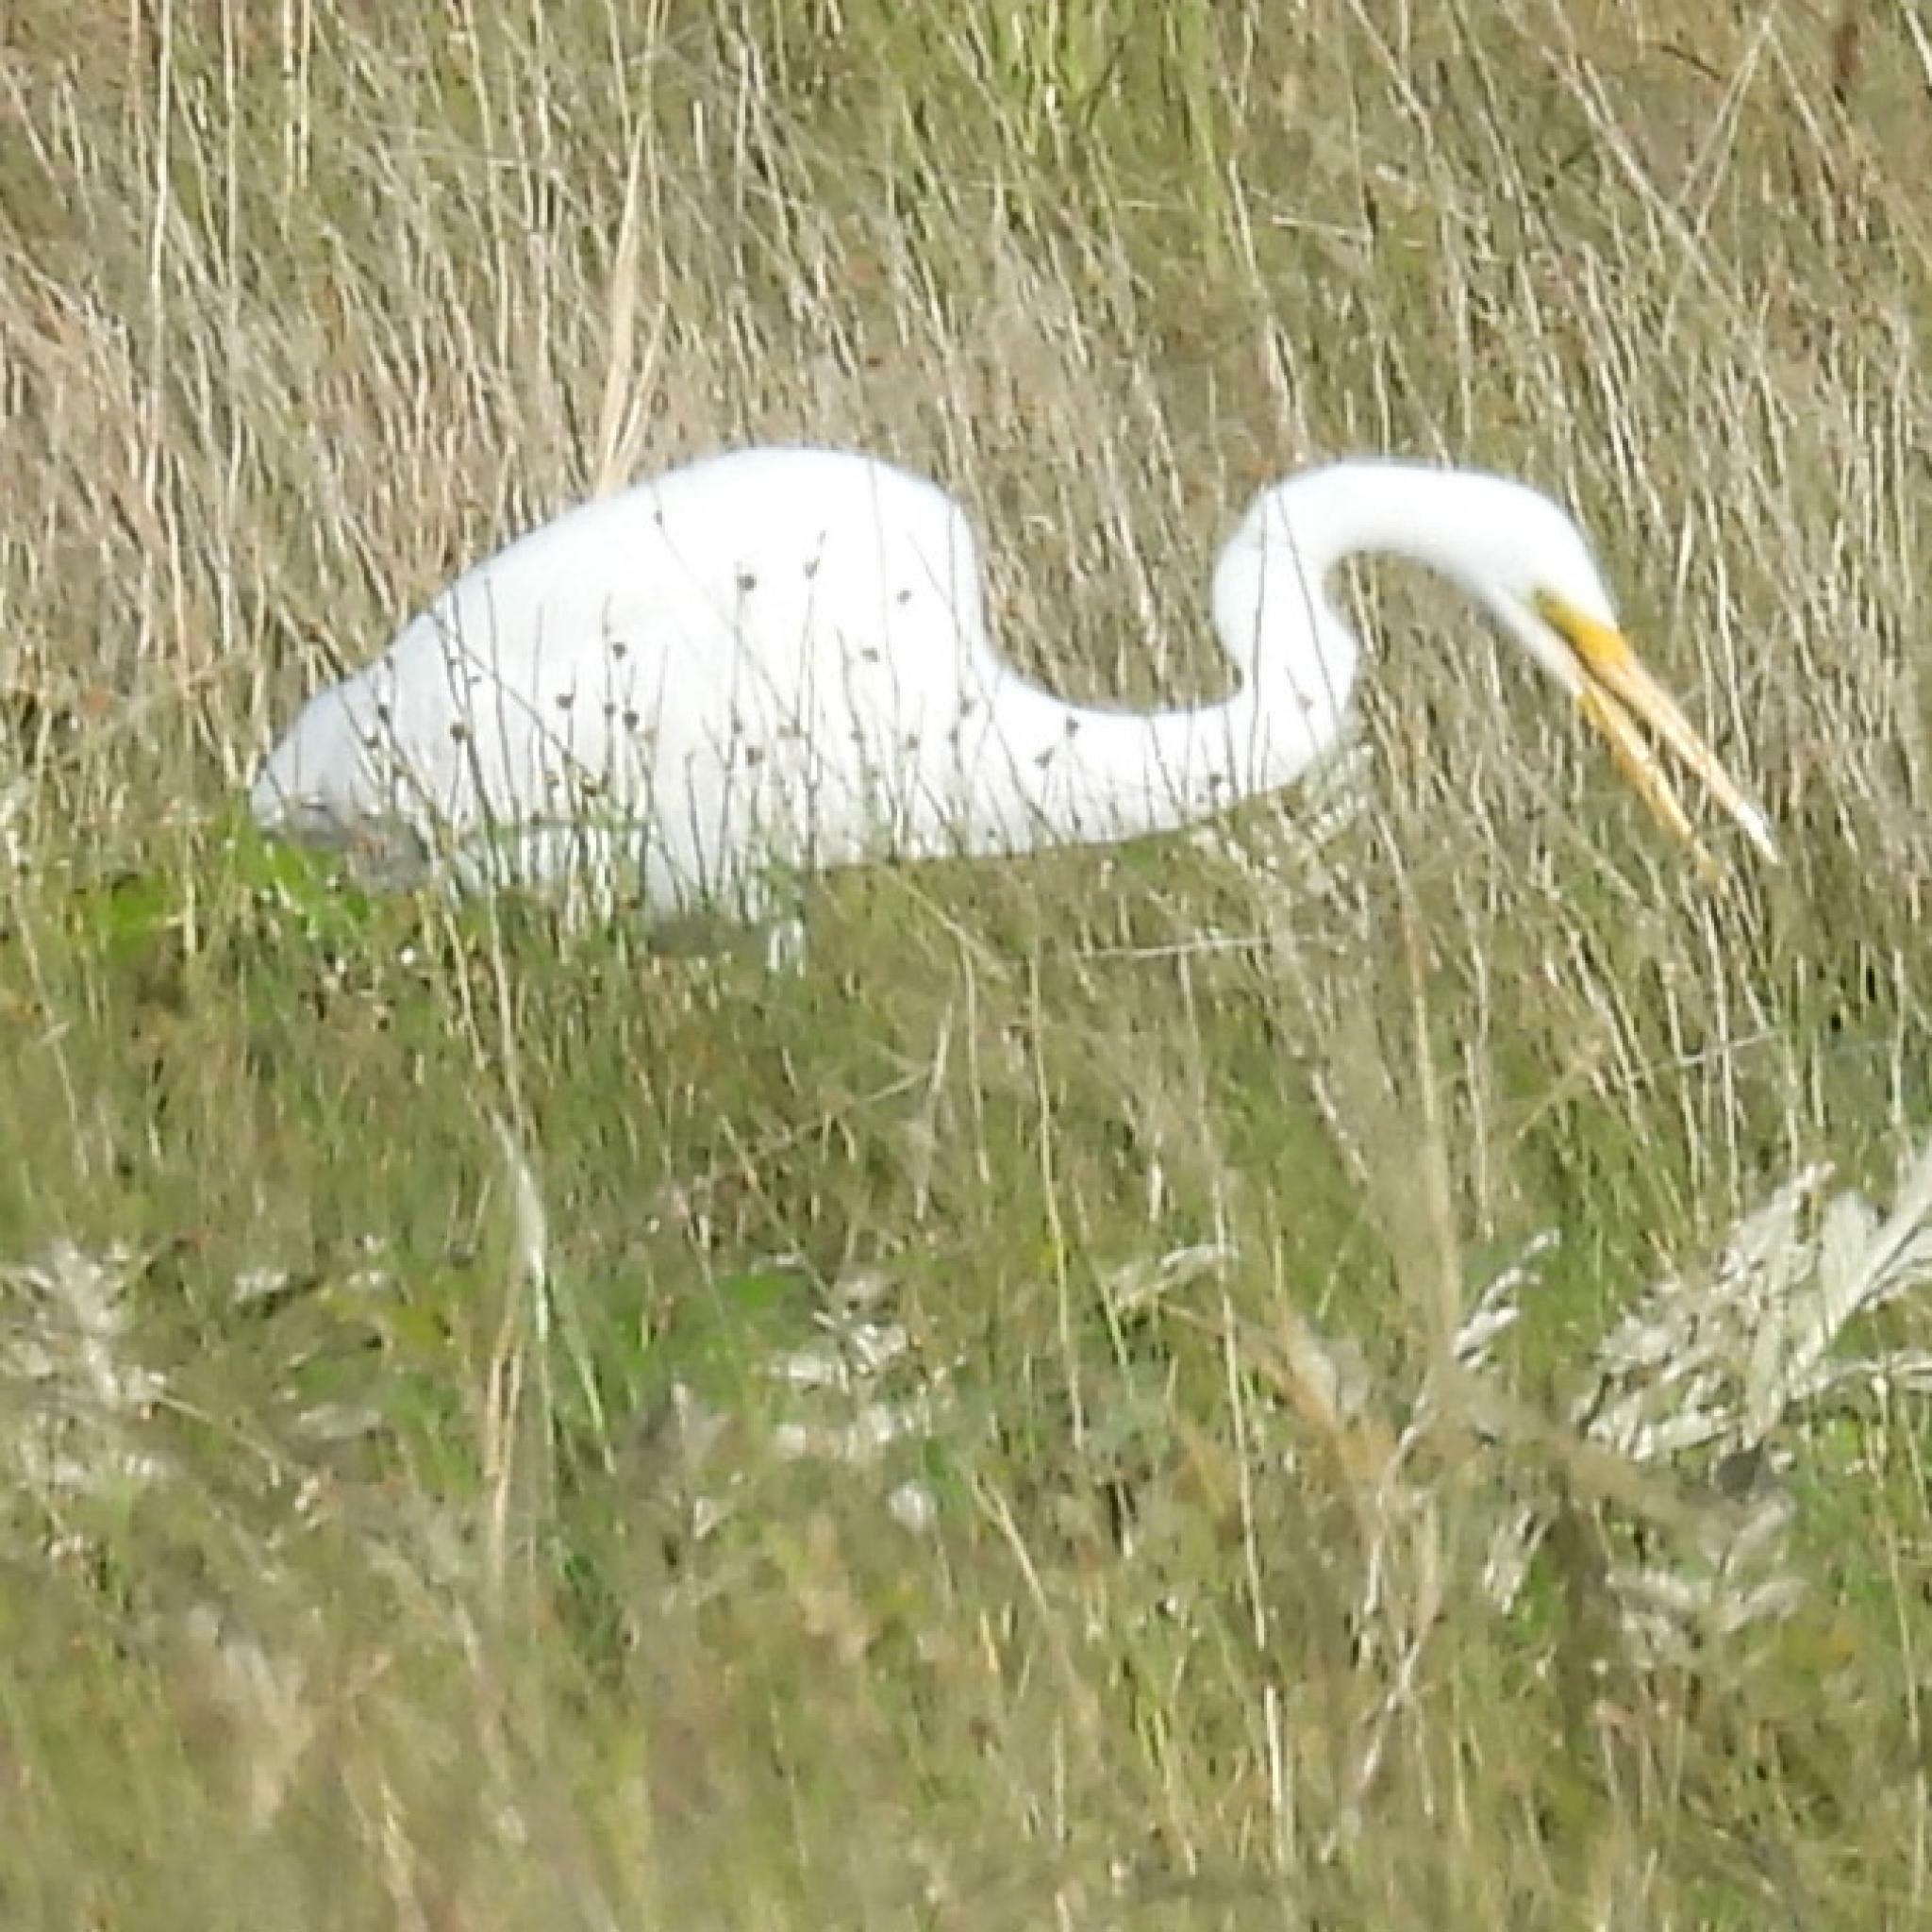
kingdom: Animalia
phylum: Chordata
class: Aves
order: Pelecaniformes
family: Ardeidae
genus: Ardea
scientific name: Ardea alba
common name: Great egret
